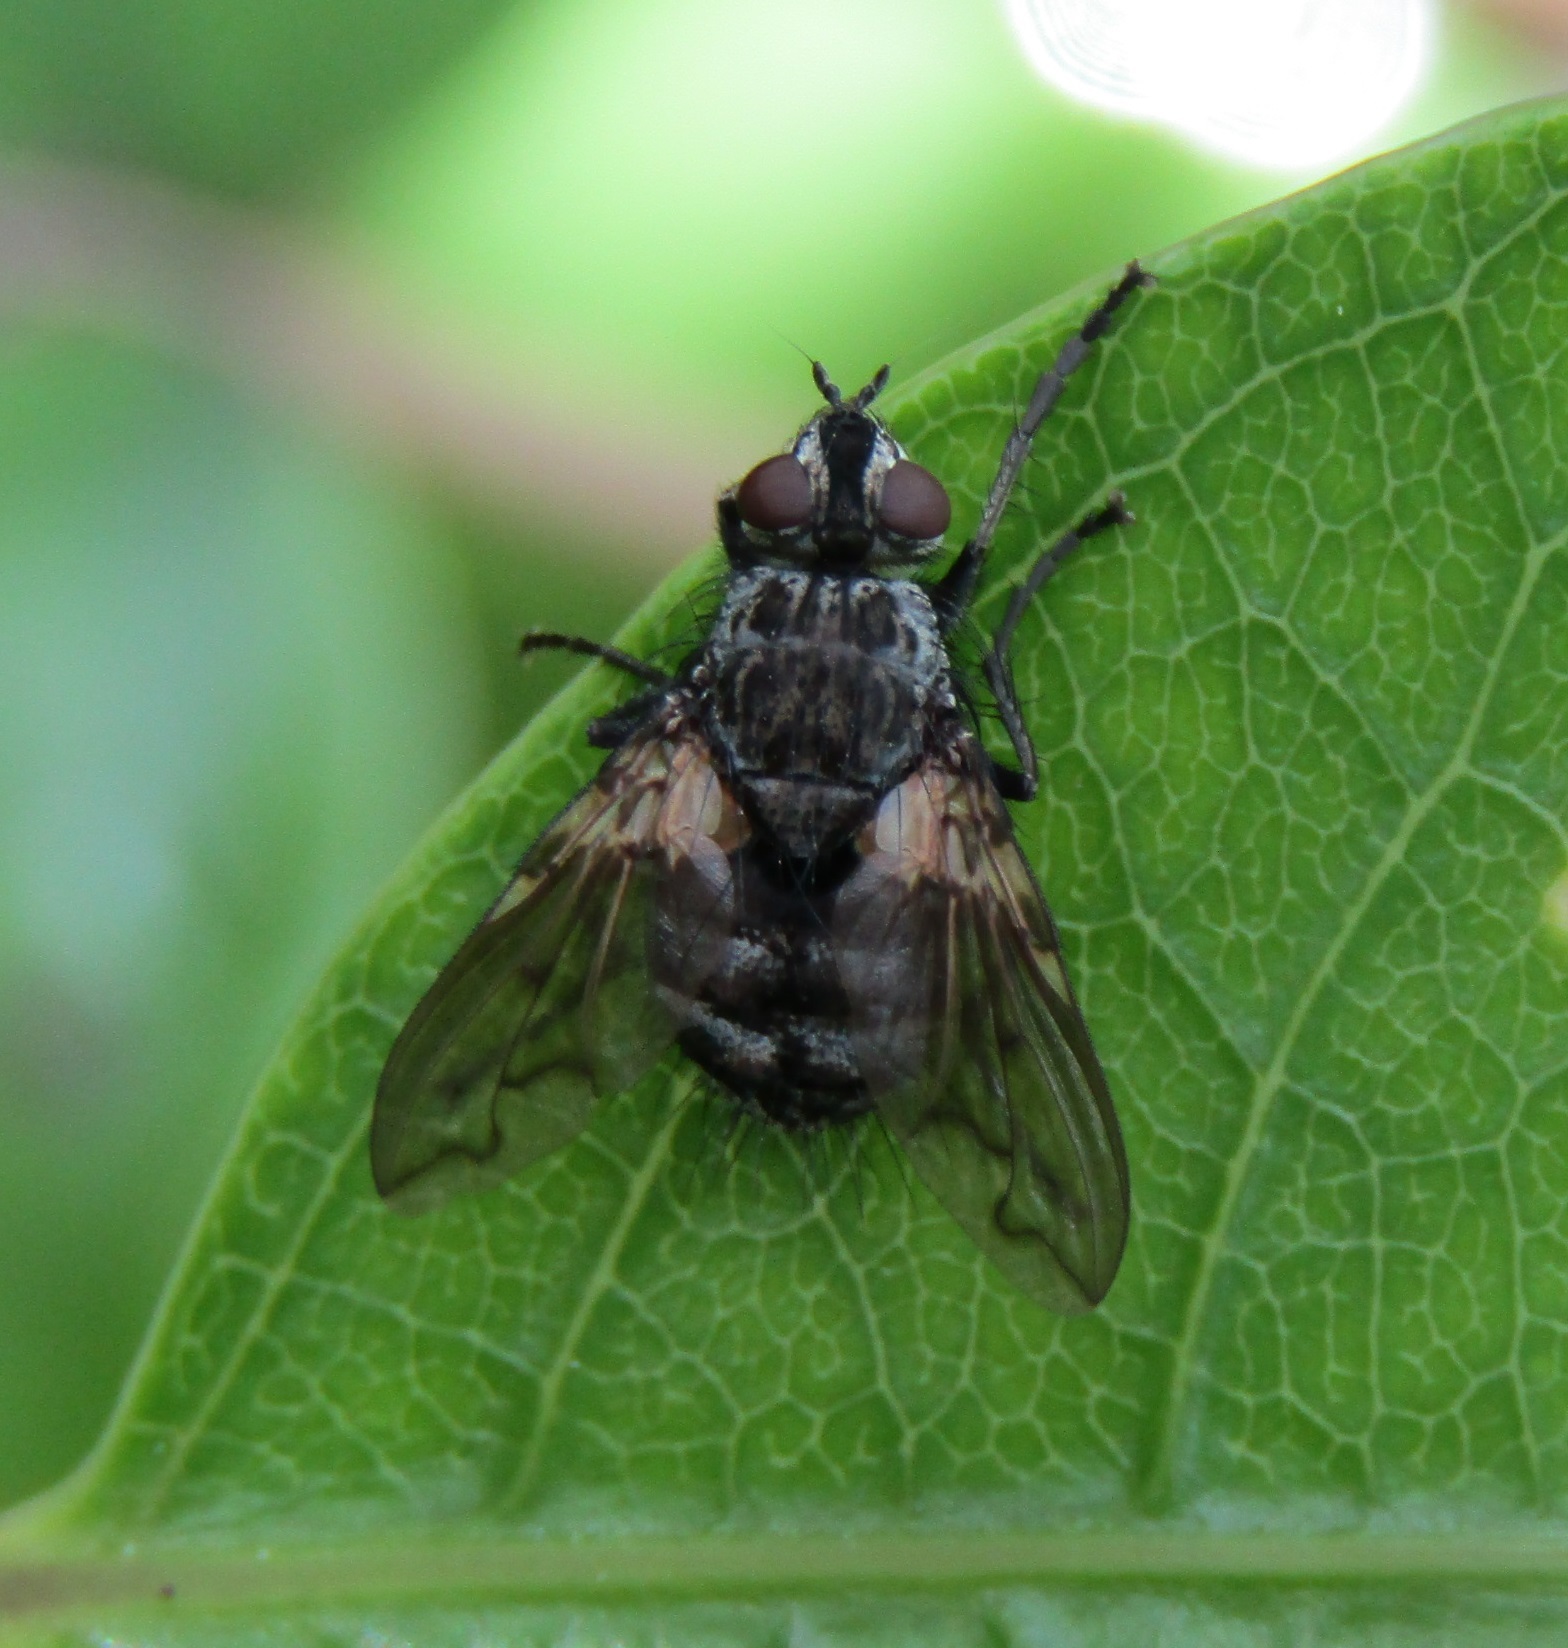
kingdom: Animalia
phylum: Arthropoda
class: Insecta
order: Diptera
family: Tachinidae
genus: Mallochomacquartia
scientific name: Mallochomacquartia vexata
